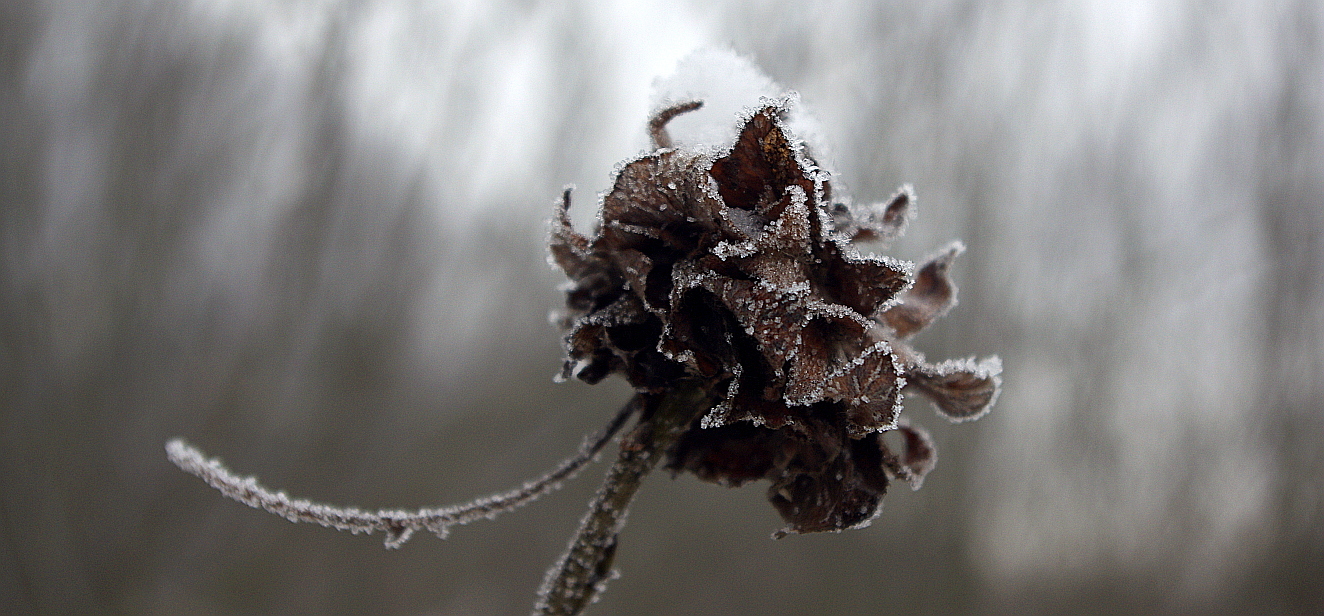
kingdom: Animalia
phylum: Arthropoda
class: Insecta
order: Diptera
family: Cecidomyiidae
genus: Rabdophaga
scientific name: Rabdophaga rosaria
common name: Willow rose gall midge
